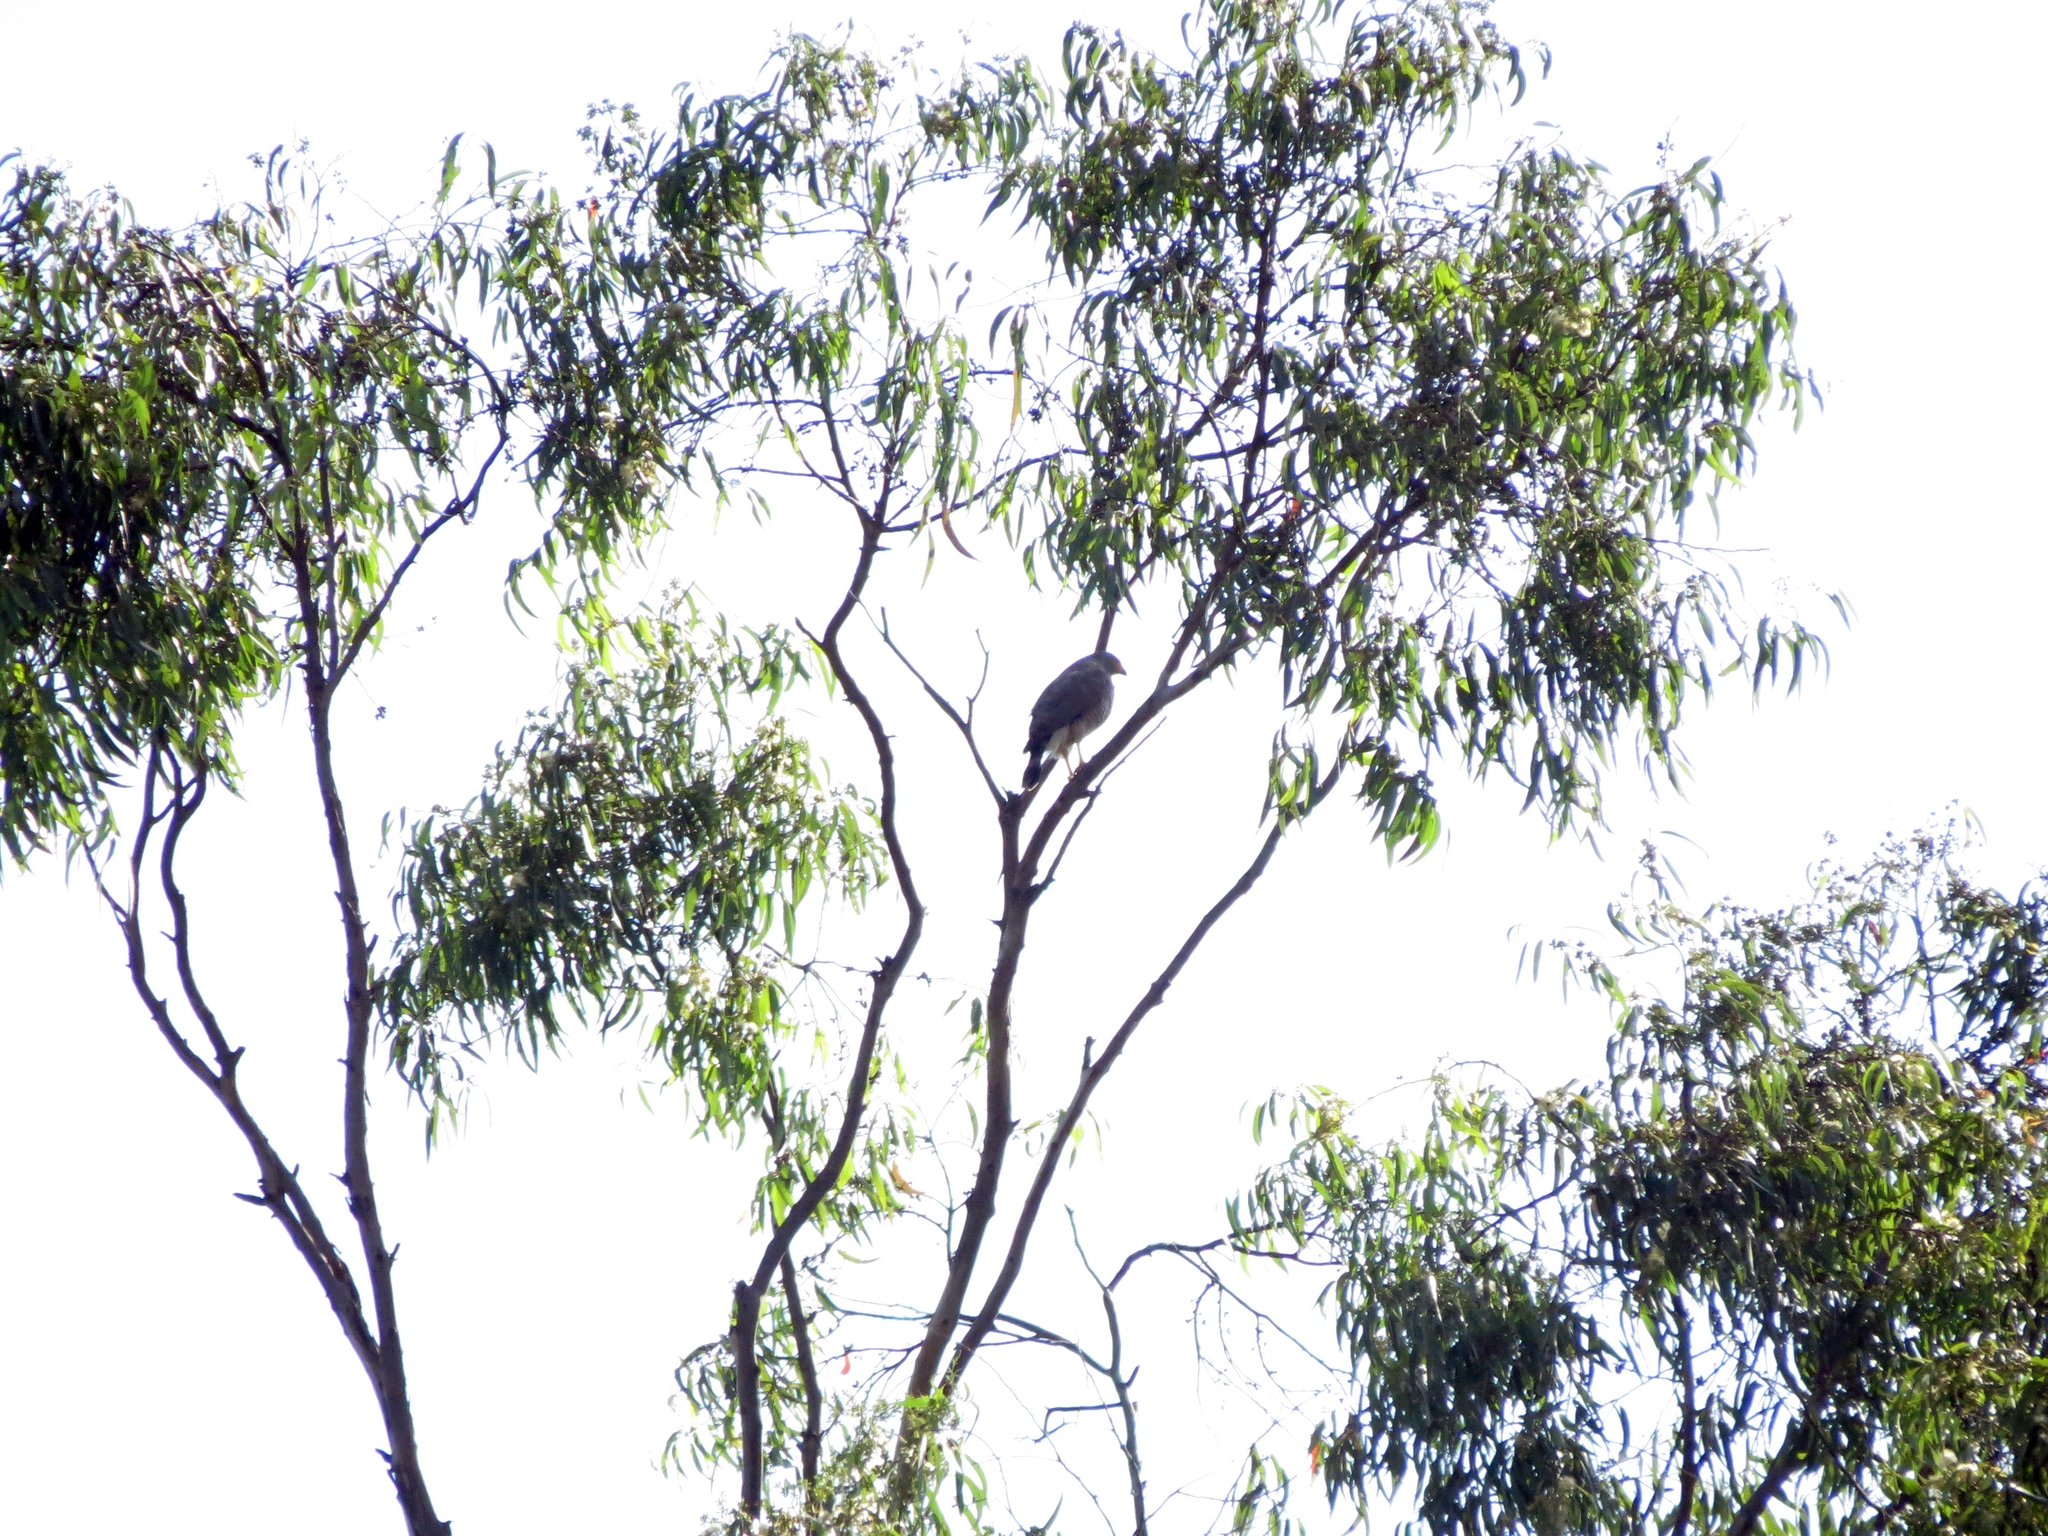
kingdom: Animalia
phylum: Chordata
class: Aves
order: Accipitriformes
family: Accipitridae
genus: Rupornis
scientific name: Rupornis magnirostris
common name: Roadside hawk
